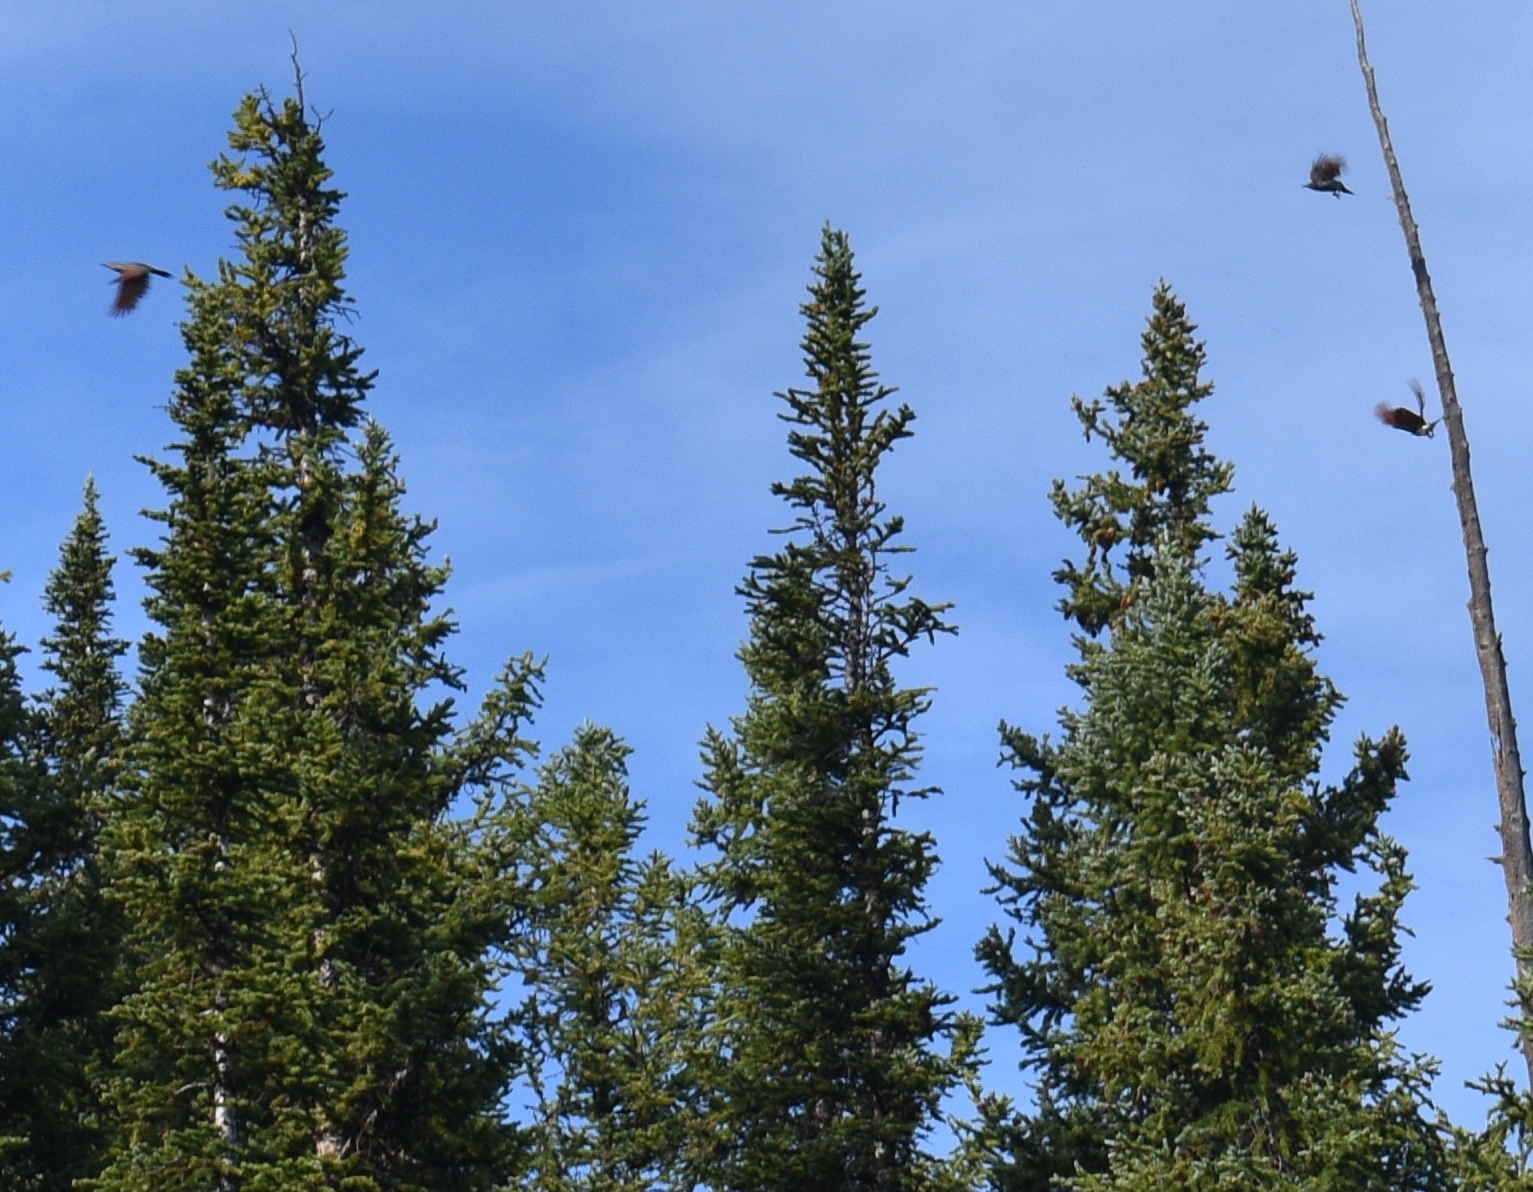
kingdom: Animalia
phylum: Chordata
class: Aves
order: Piciformes
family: Picidae
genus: Colaptes
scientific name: Colaptes auratus
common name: Northern flicker
